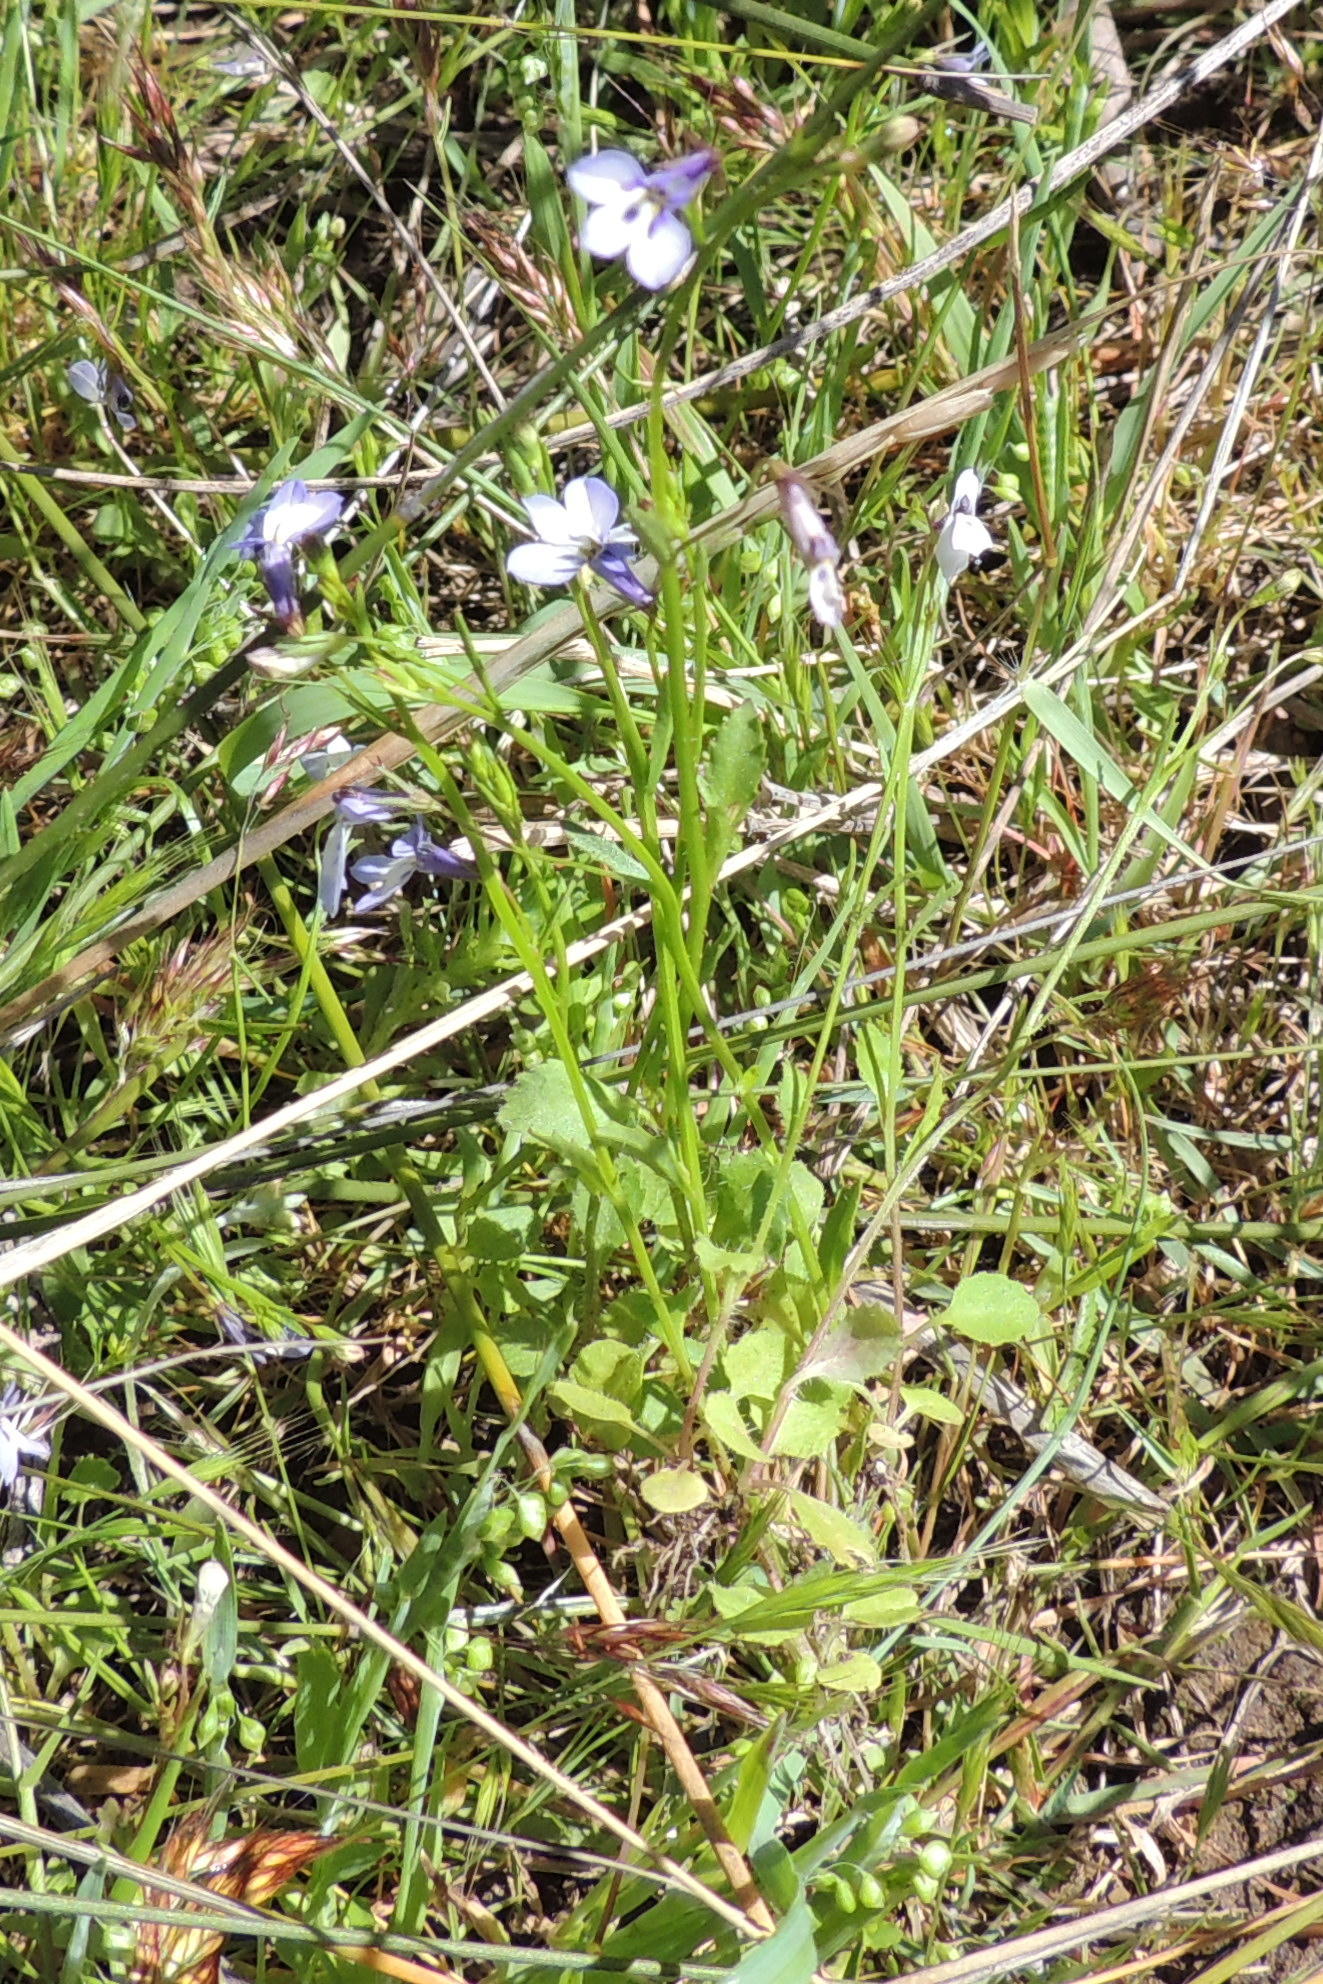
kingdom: Plantae
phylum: Tracheophyta
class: Magnoliopsida
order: Asterales
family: Campanulaceae
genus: Lobelia
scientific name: Lobelia erinus
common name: Edging lobelia
